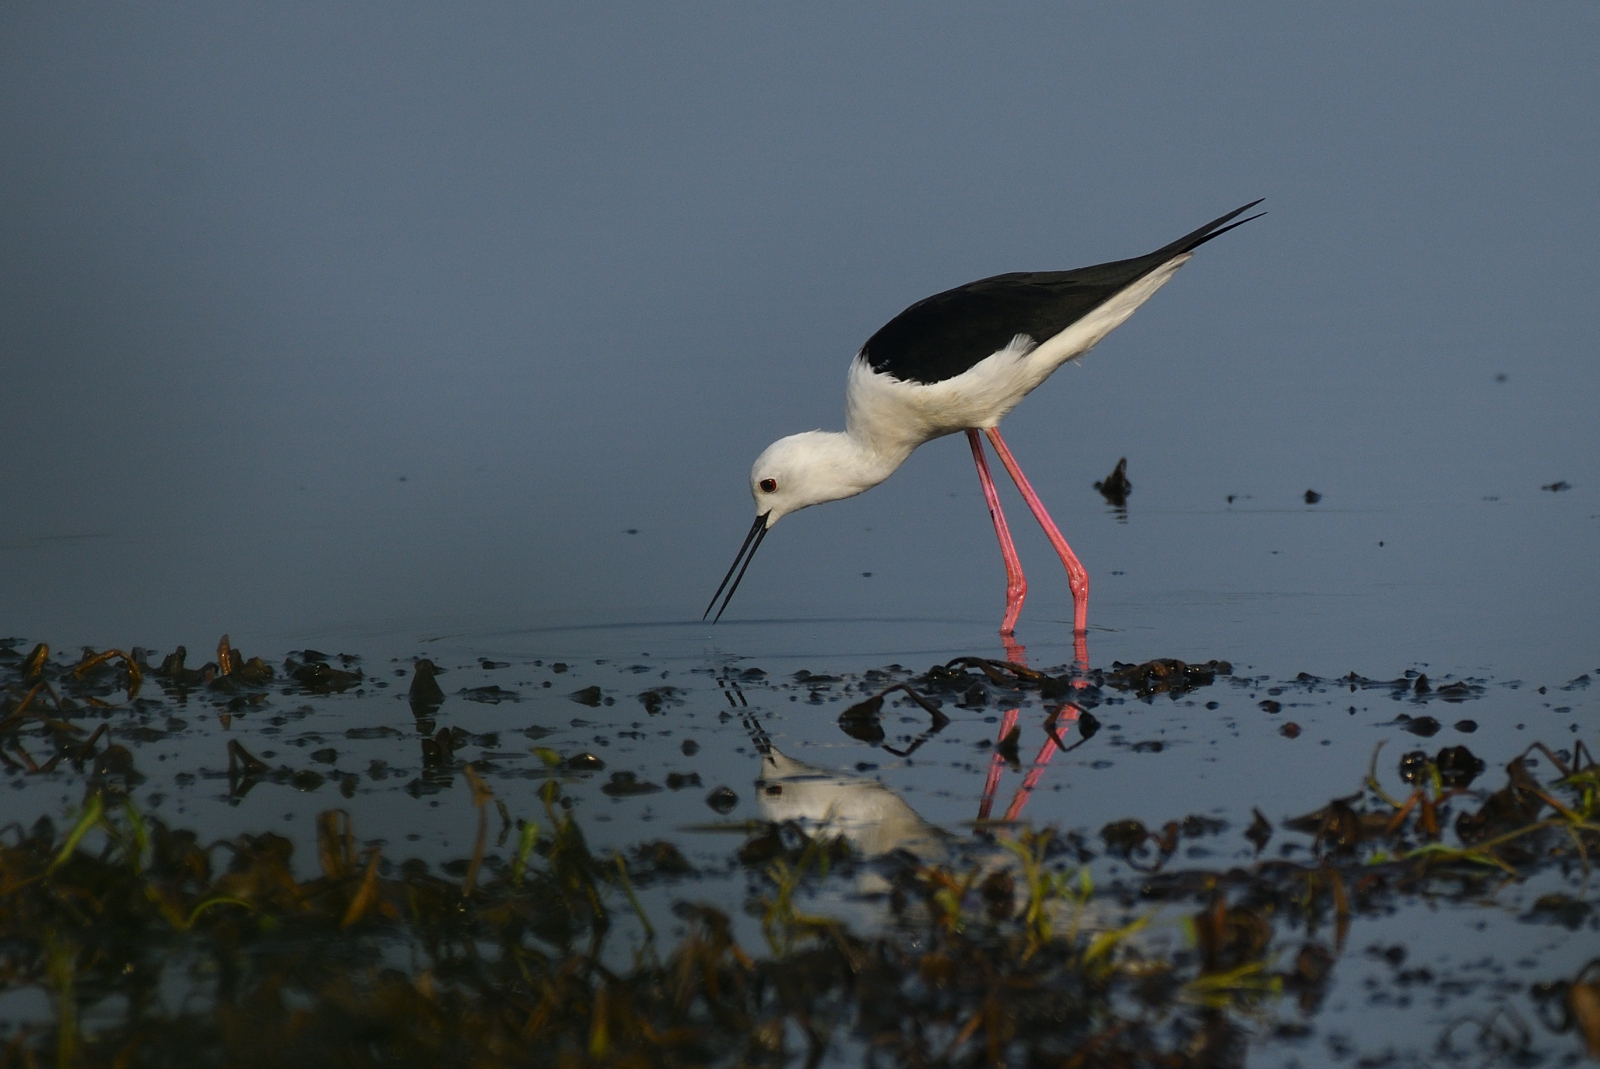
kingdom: Animalia
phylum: Chordata
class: Aves
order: Charadriiformes
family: Recurvirostridae
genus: Himantopus
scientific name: Himantopus himantopus
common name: Black-winged stilt
